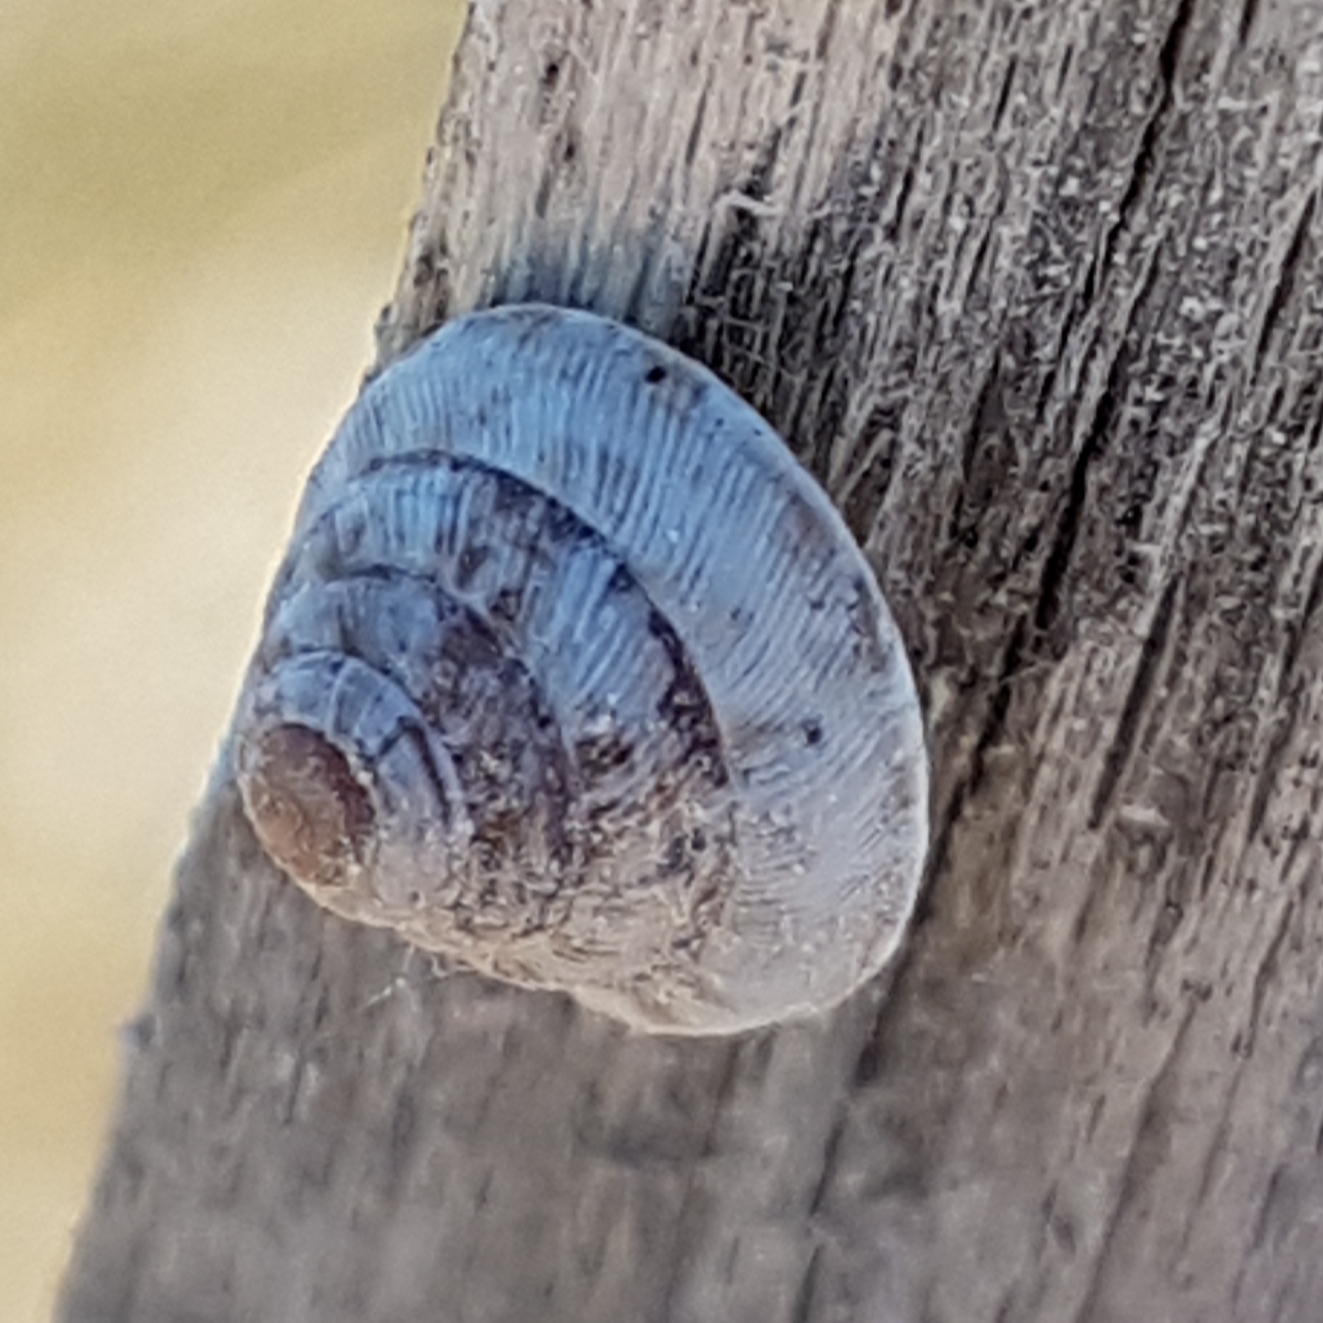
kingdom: Animalia
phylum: Mollusca
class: Gastropoda
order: Stylommatophora
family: Geomitridae
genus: Trochoidea
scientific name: Trochoidea trochoides
